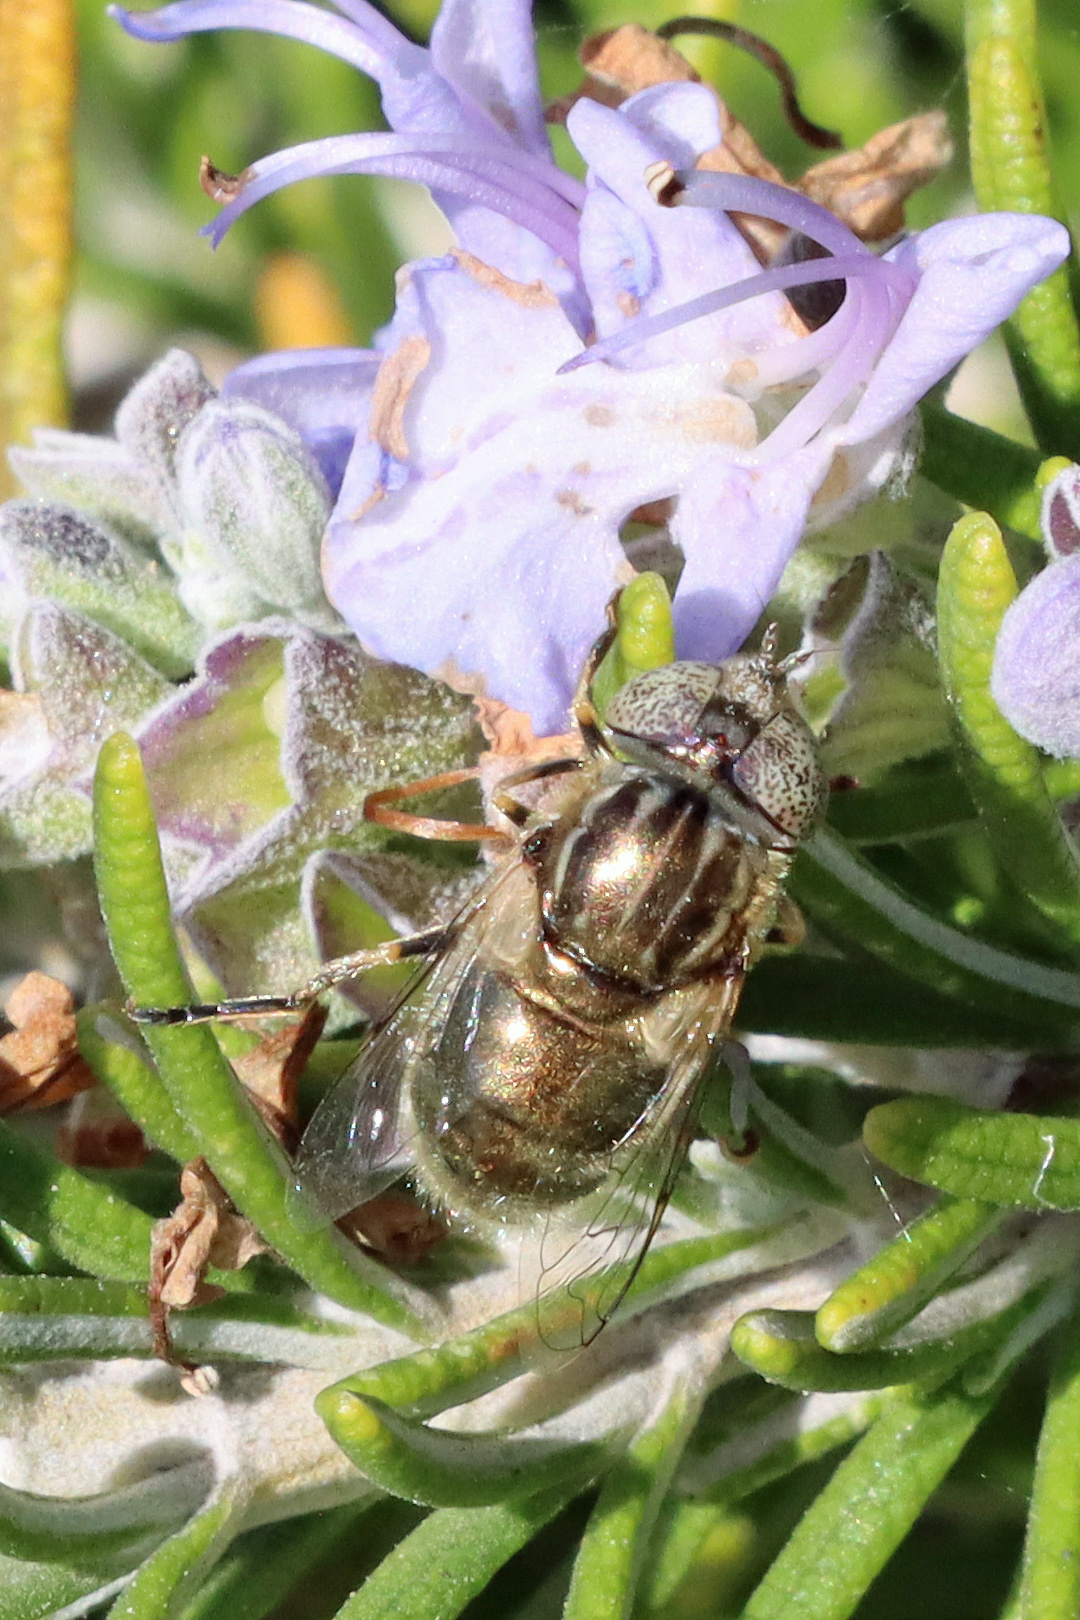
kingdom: Animalia
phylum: Arthropoda
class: Insecta
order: Diptera
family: Syrphidae
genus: Eristalinus
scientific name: Eristalinus aeneus
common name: Syrphid fly
